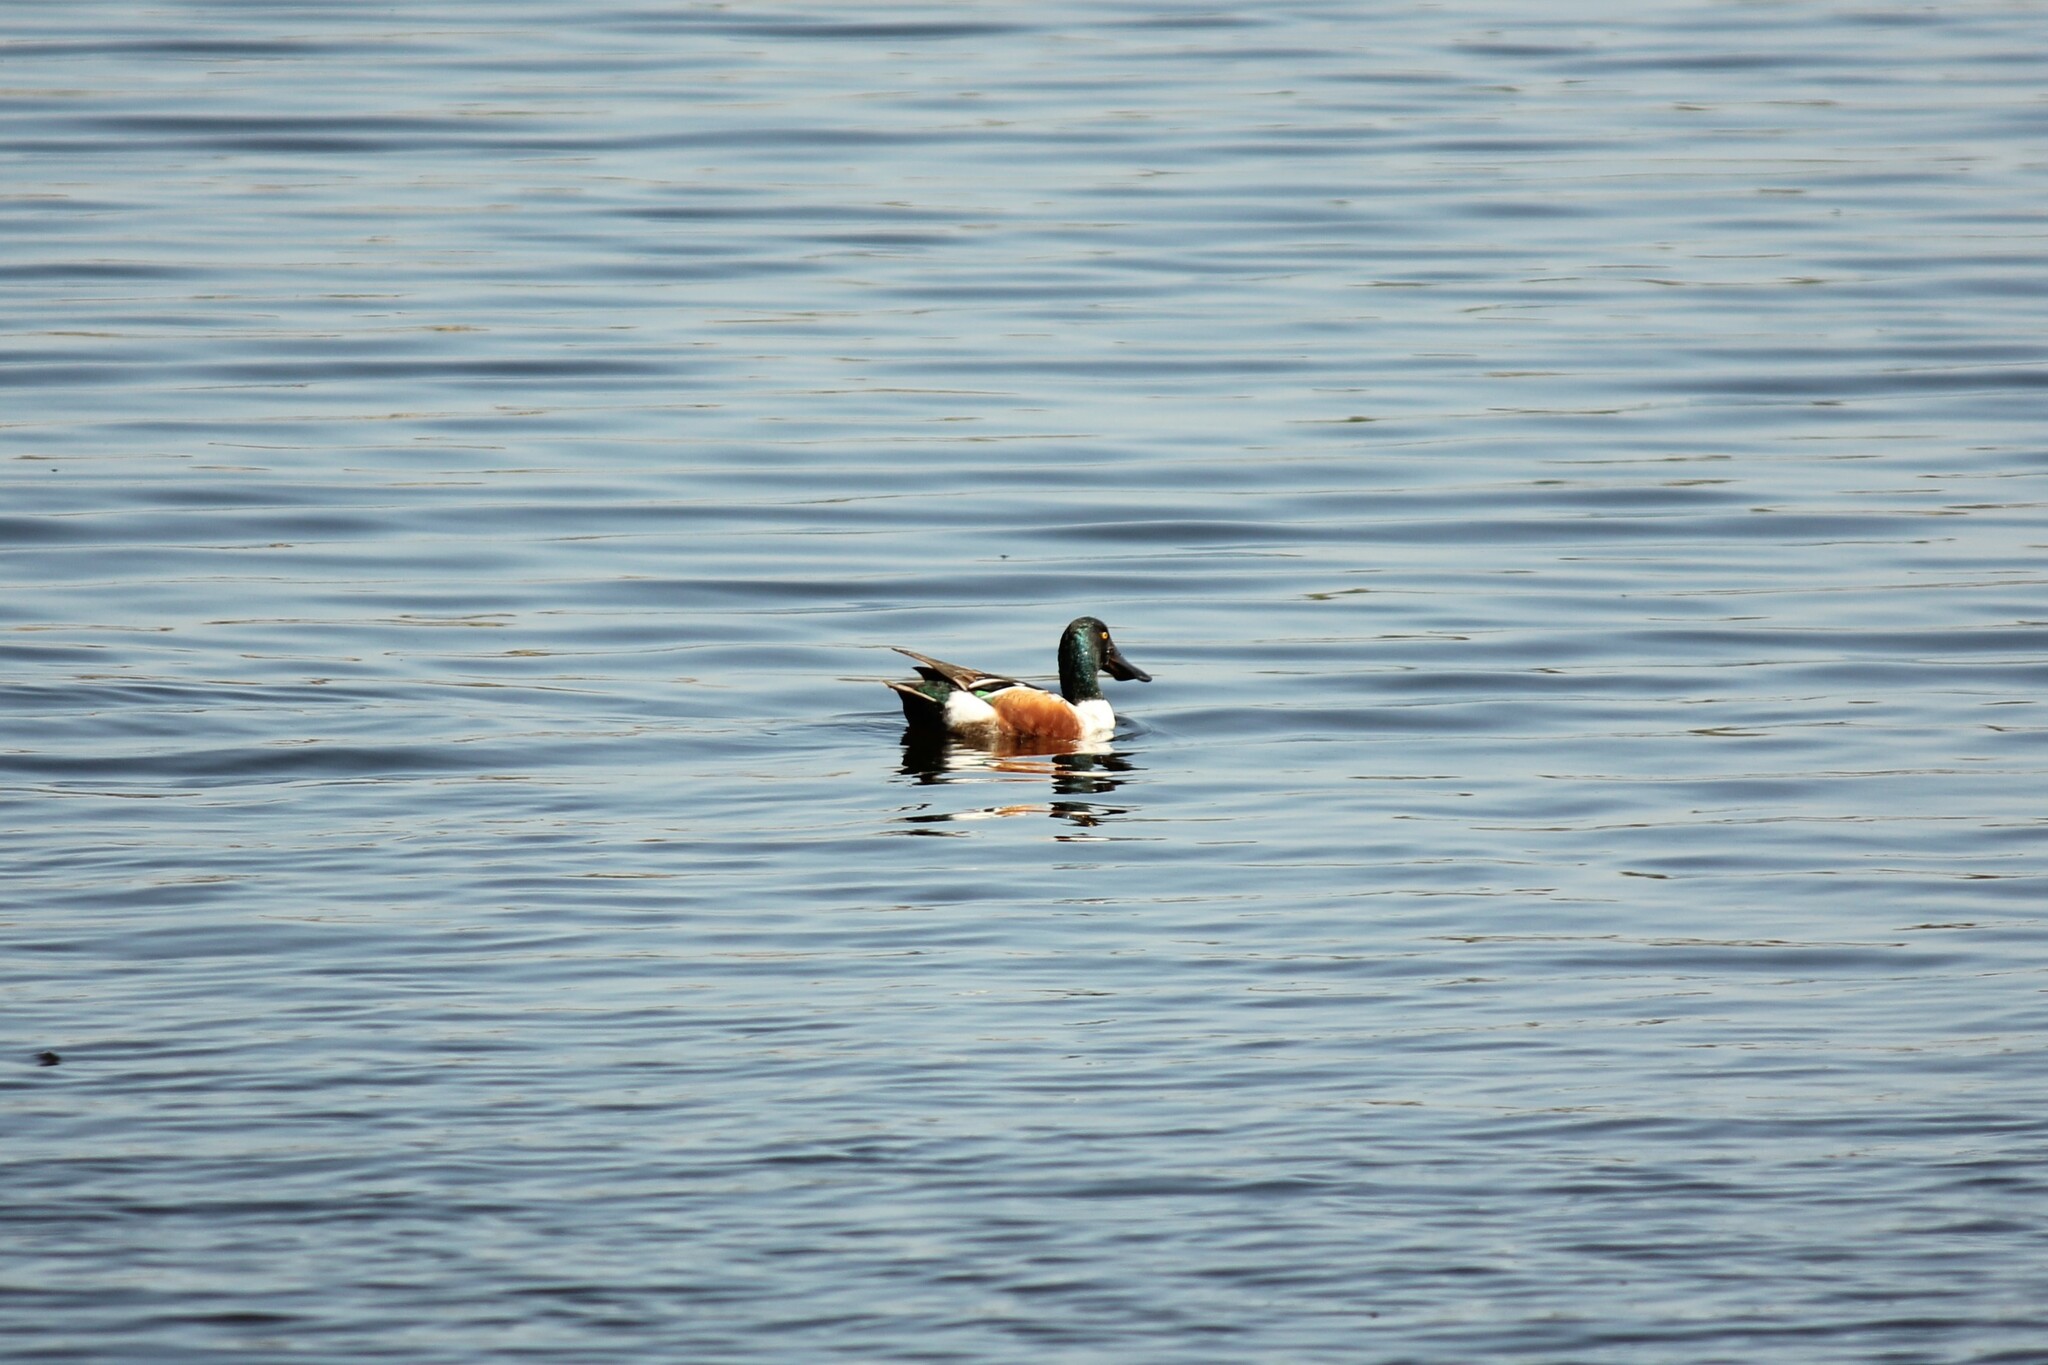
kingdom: Animalia
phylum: Chordata
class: Aves
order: Anseriformes
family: Anatidae
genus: Spatula
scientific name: Spatula clypeata
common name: Northern shoveler
